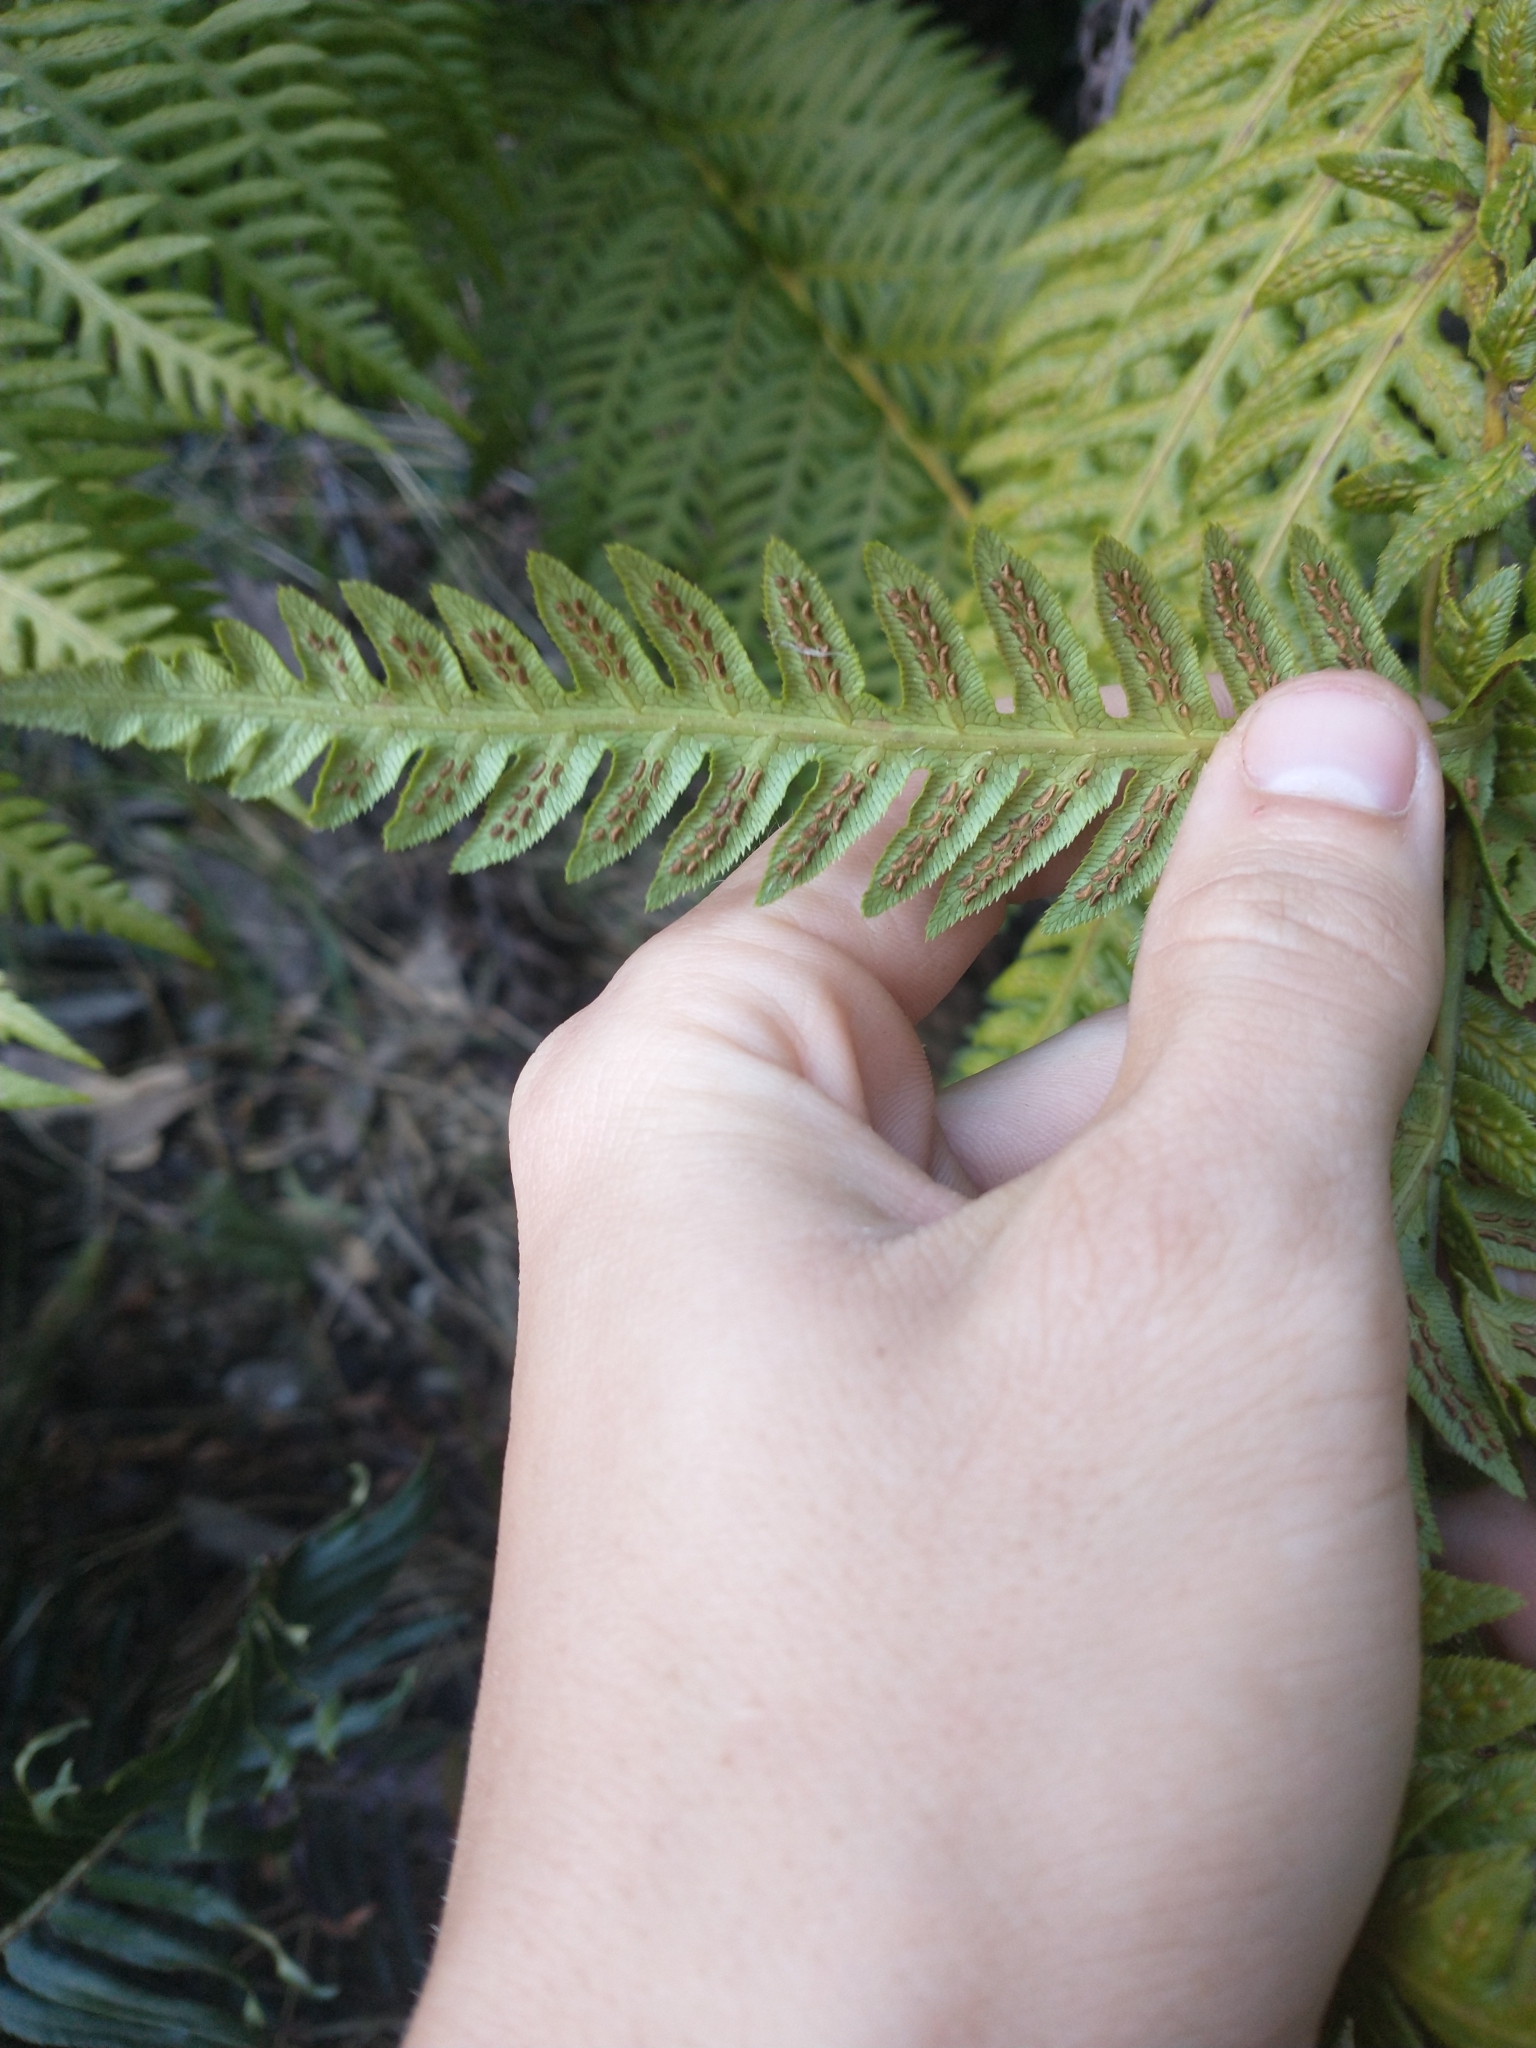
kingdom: Plantae
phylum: Tracheophyta
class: Polypodiopsida
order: Polypodiales
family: Blechnaceae
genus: Woodwardia
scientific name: Woodwardia fimbriata
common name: Giant chain fern
